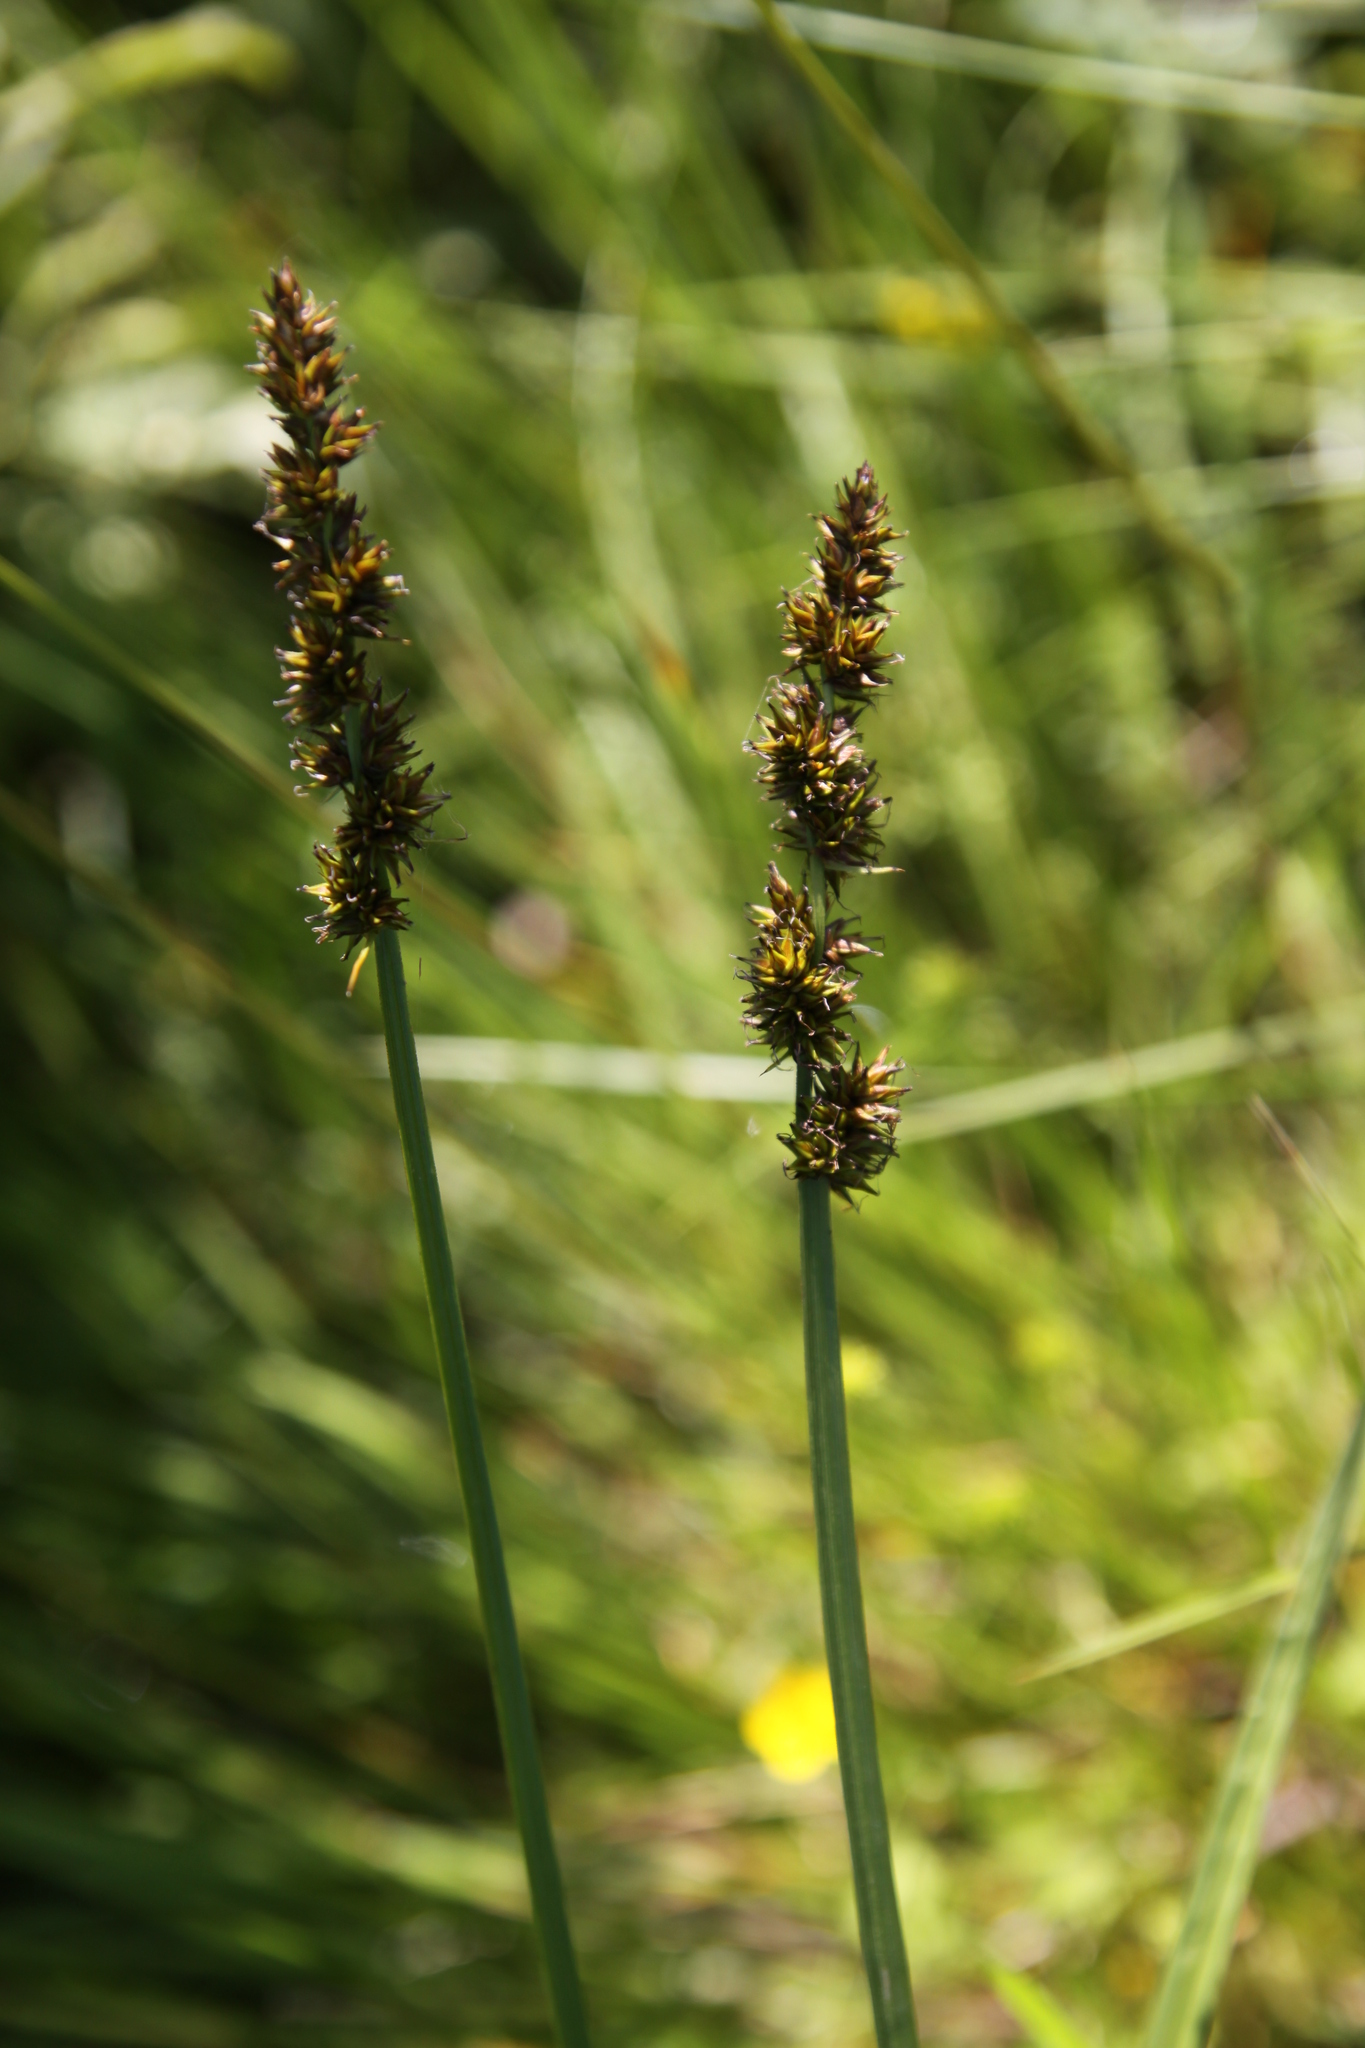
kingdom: Plantae
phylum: Tracheophyta
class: Liliopsida
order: Poales
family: Cyperaceae
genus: Carex
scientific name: Carex vulpina
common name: True fox-sedge
